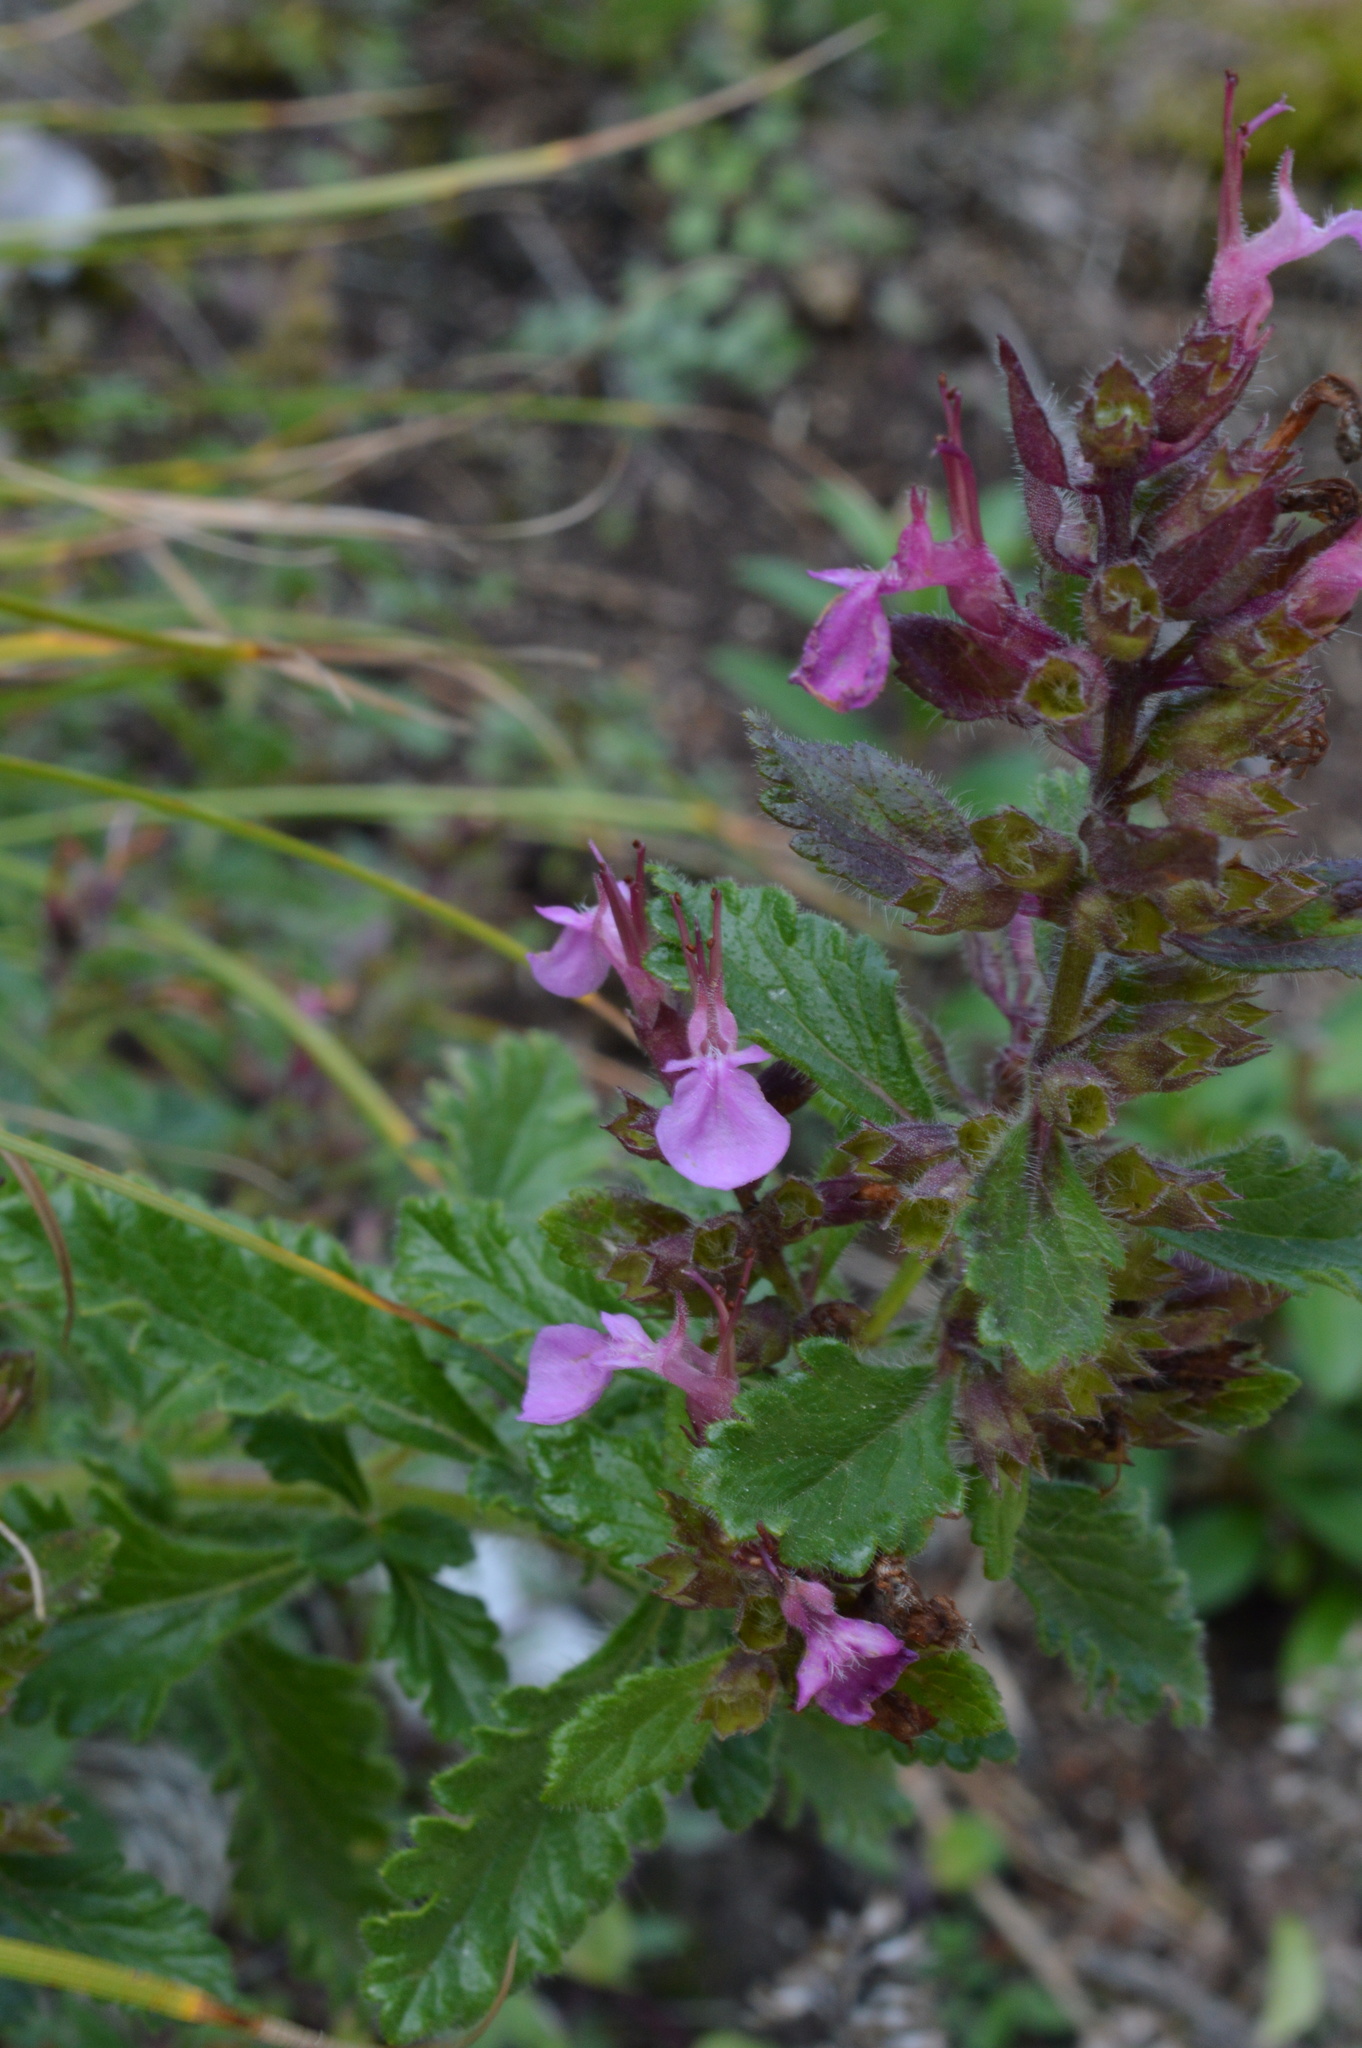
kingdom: Plantae
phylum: Tracheophyta
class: Magnoliopsida
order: Lamiales
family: Lamiaceae
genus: Teucrium
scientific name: Teucrium chamaedrys
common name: Wall germander
